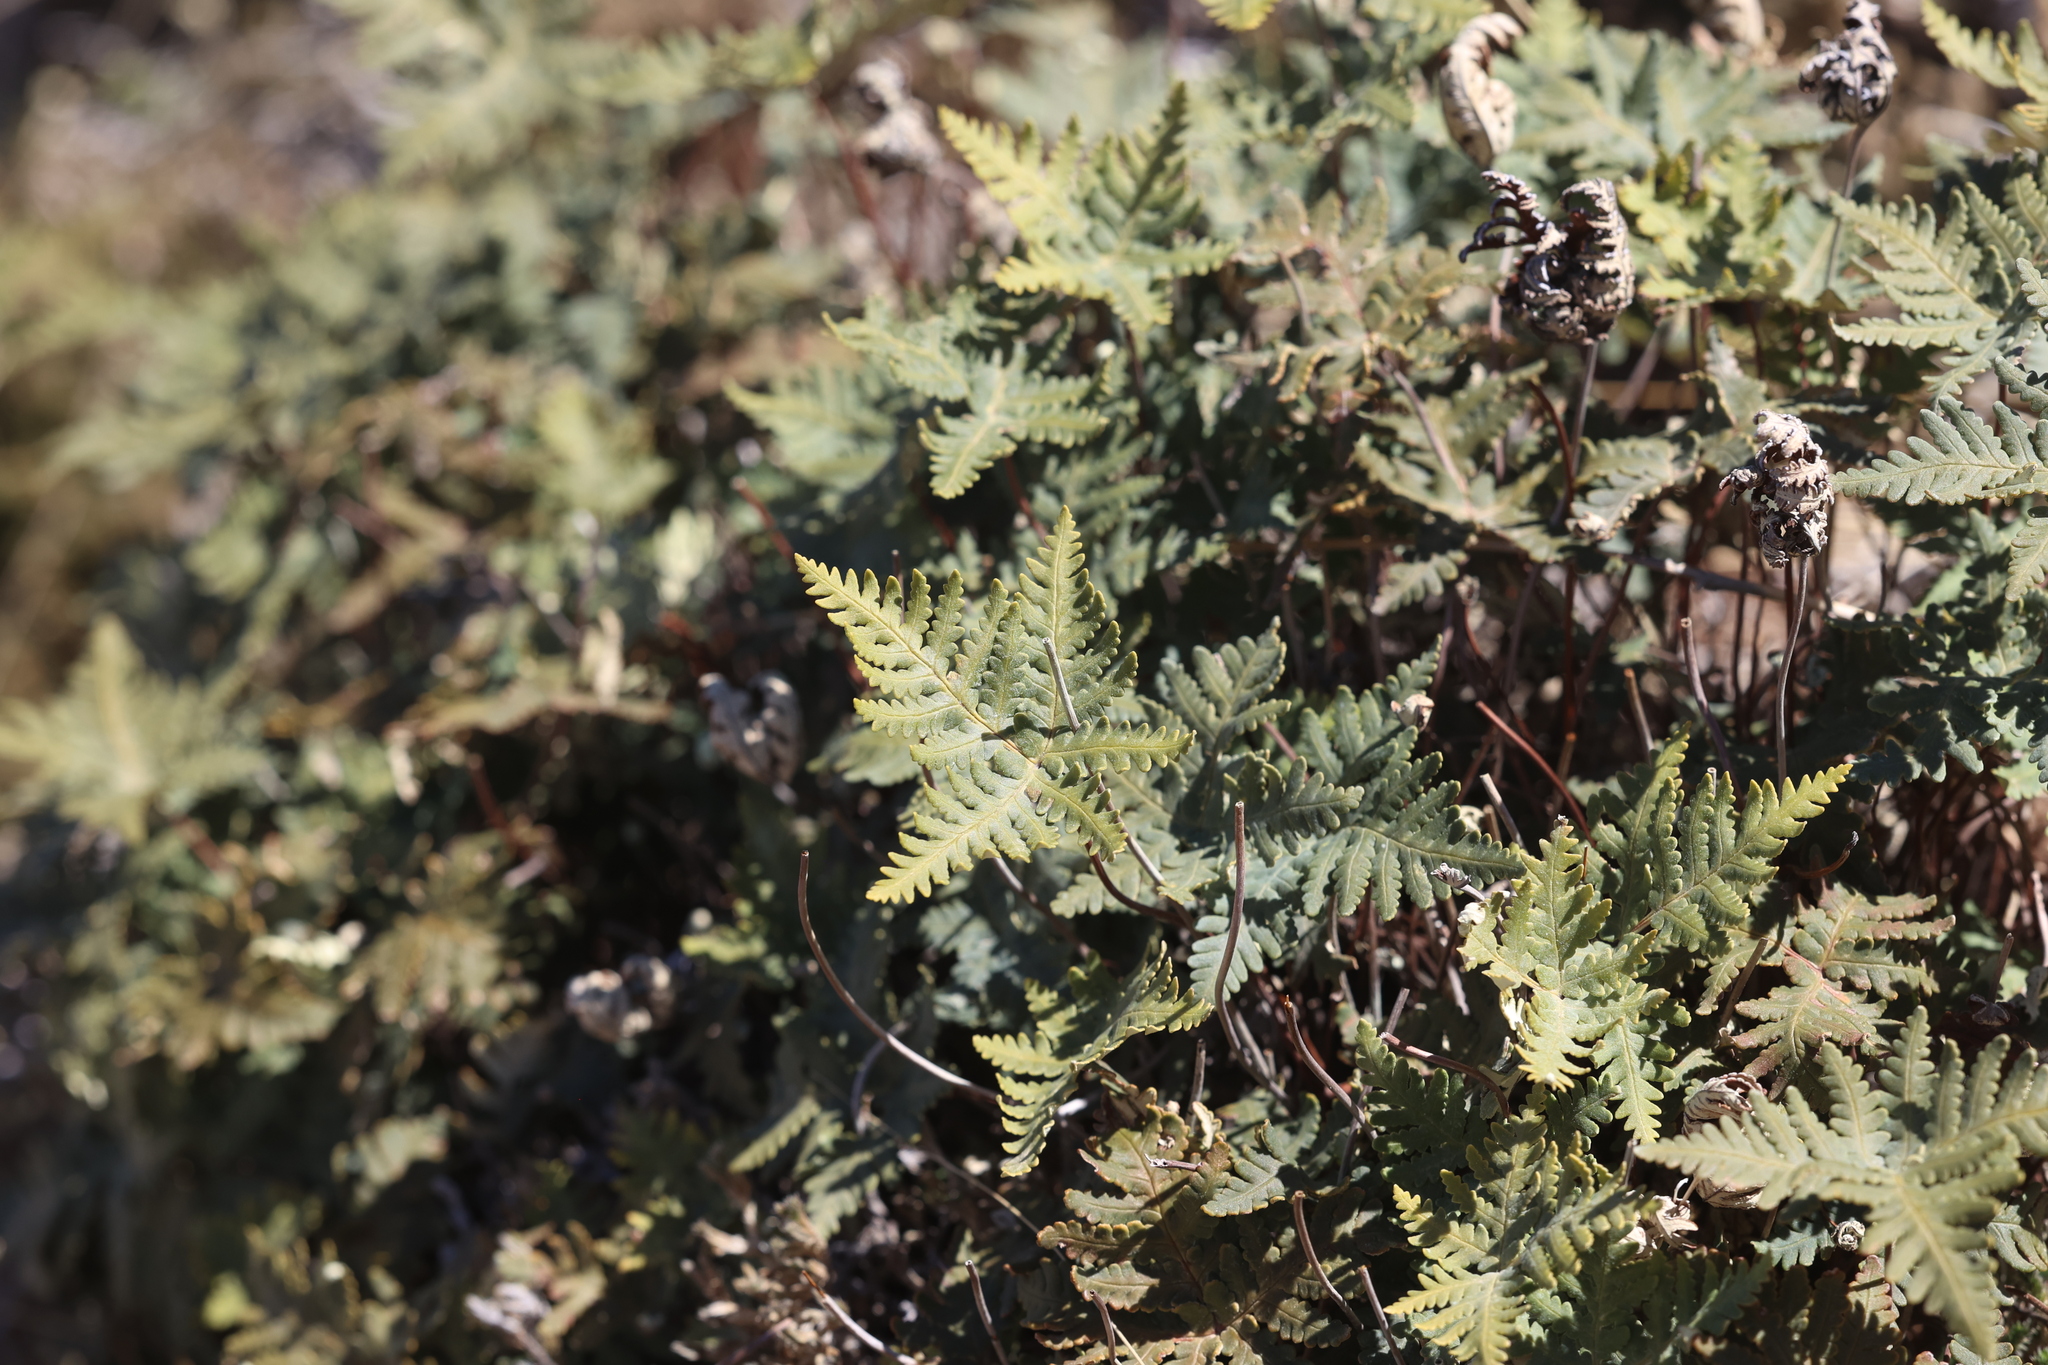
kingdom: Plantae
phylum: Tracheophyta
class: Polypodiopsida
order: Polypodiales
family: Pteridaceae
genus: Notholaena
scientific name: Notholaena standleyi
